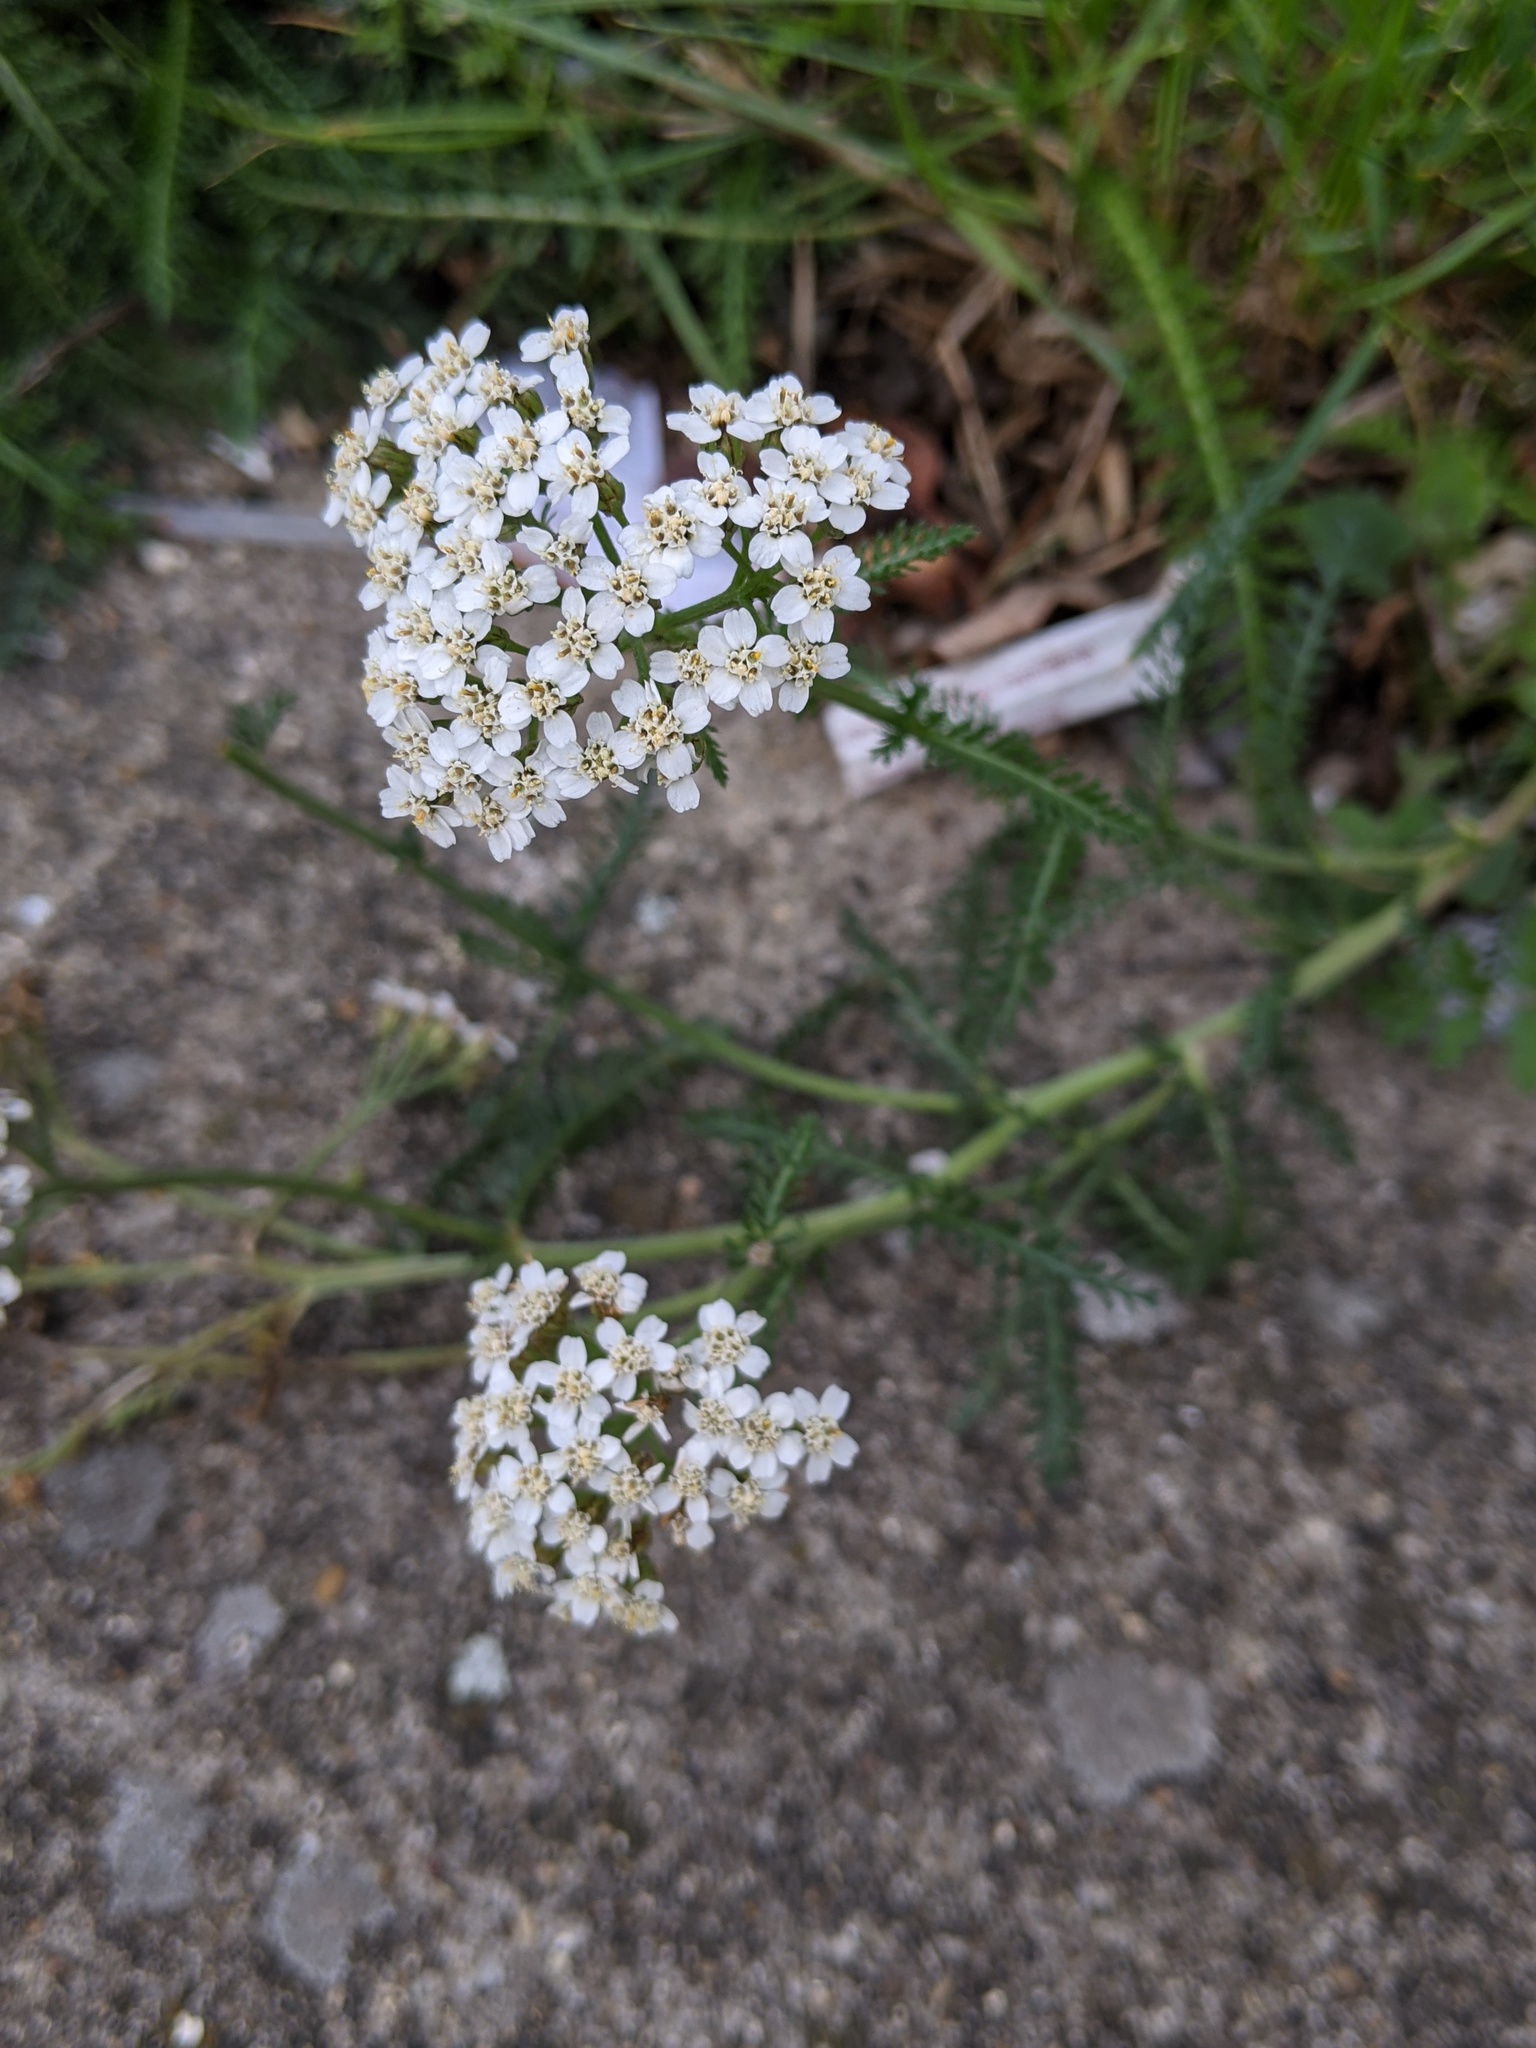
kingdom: Plantae
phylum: Tracheophyta
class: Magnoliopsida
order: Asterales
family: Asteraceae
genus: Achillea
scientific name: Achillea millefolium
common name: Yarrow
